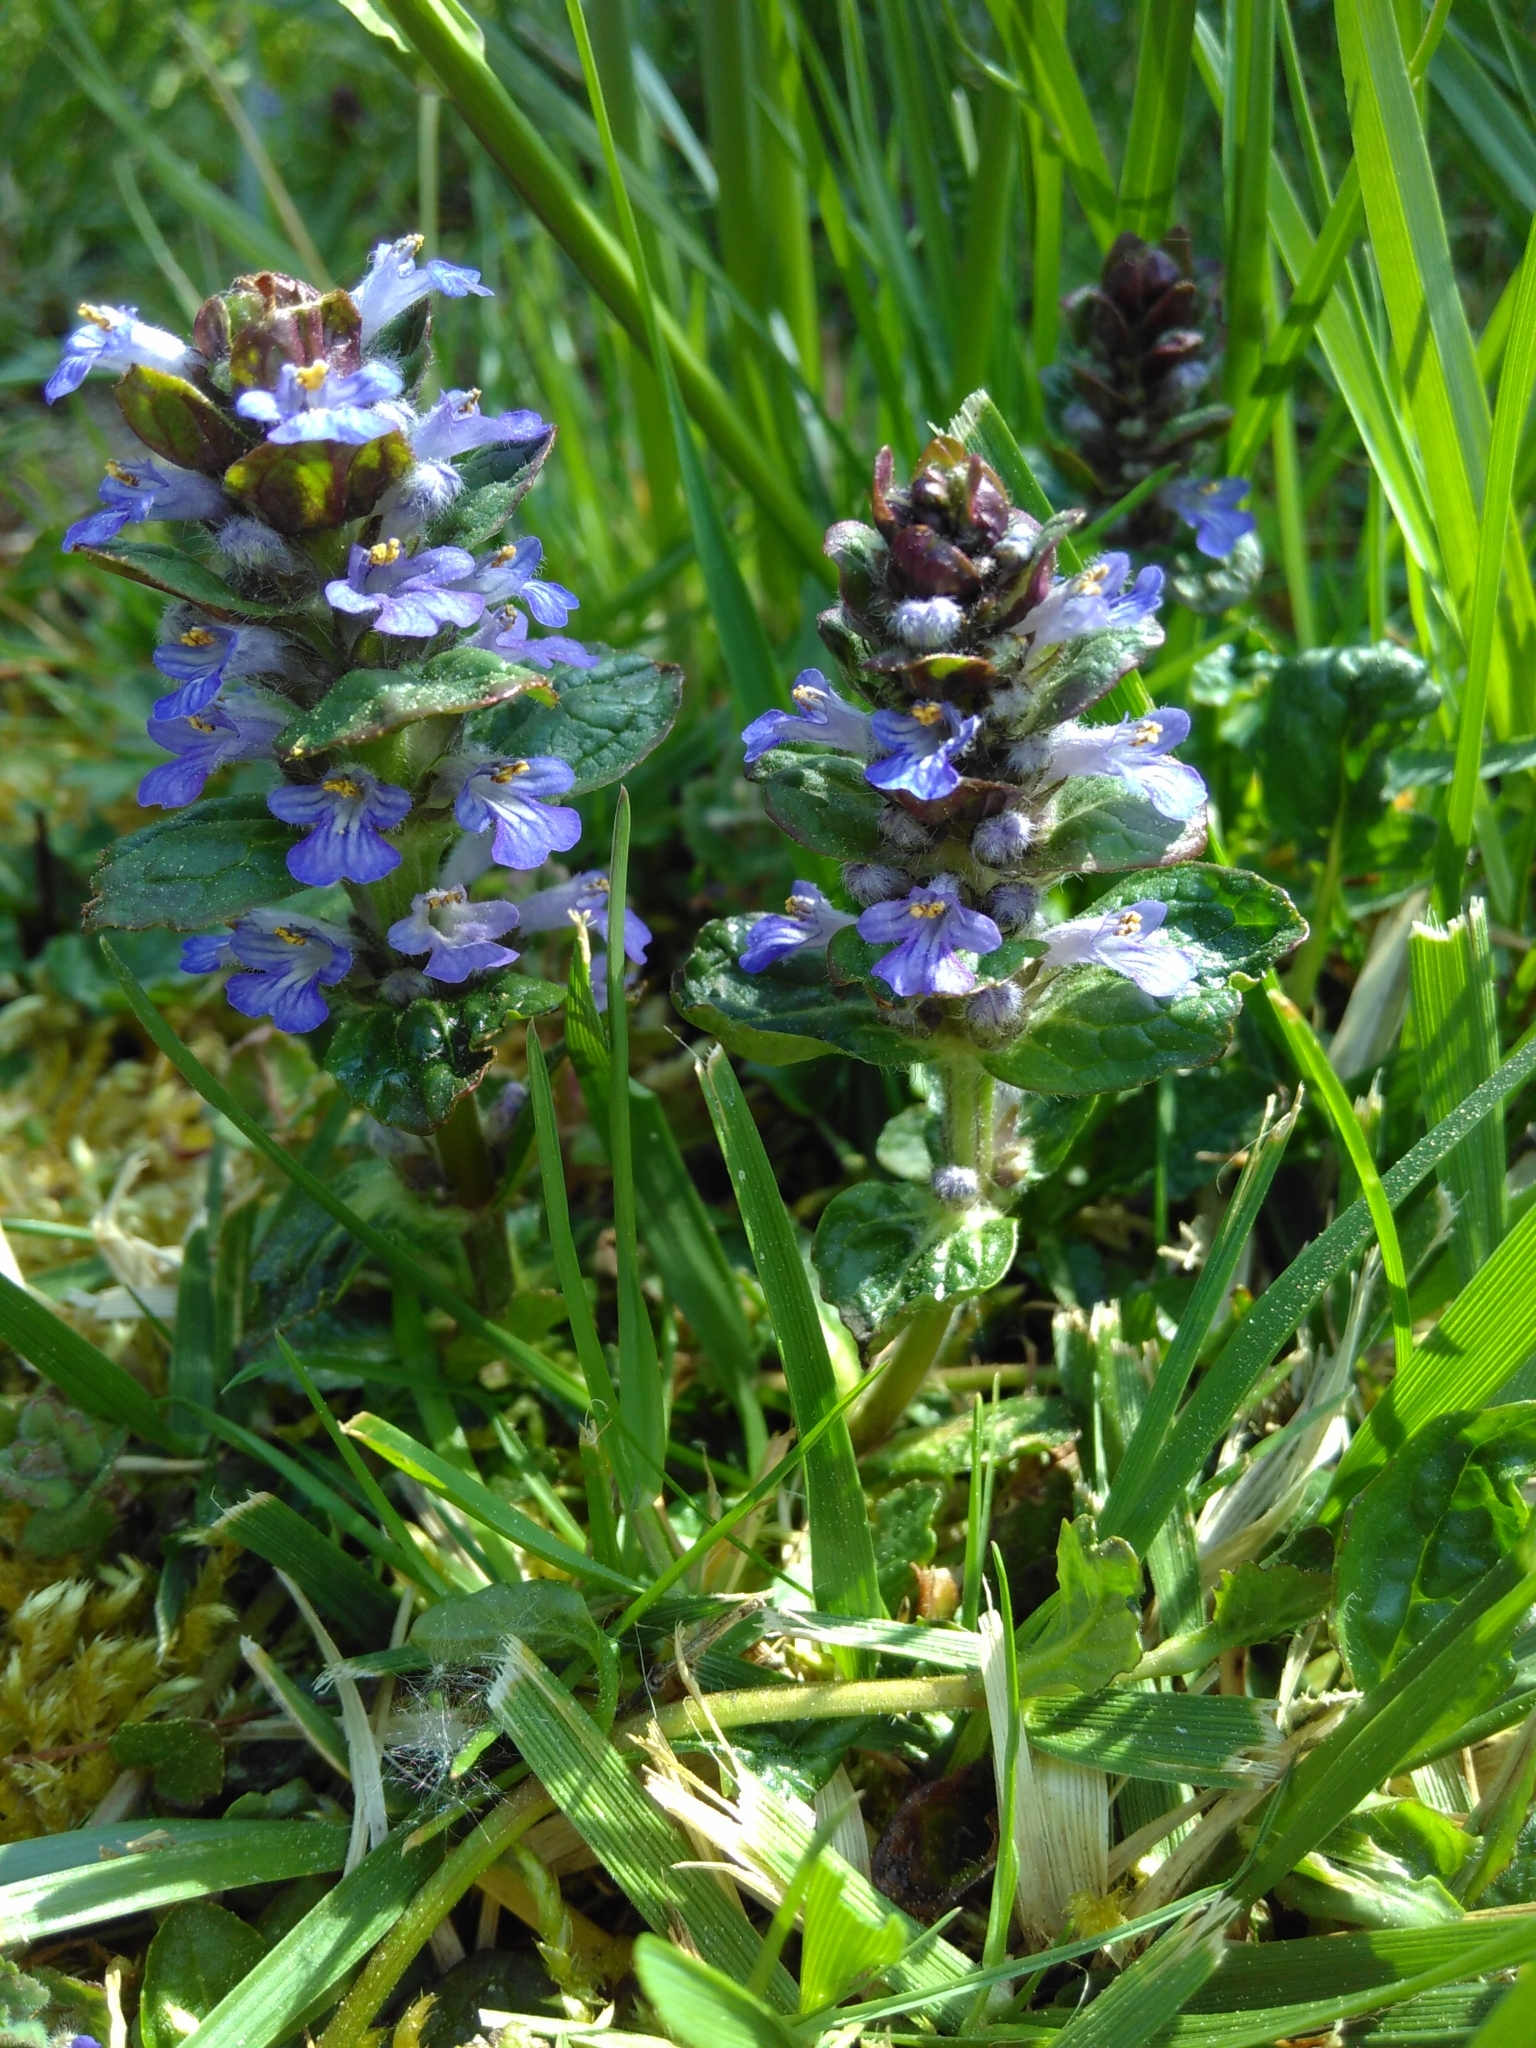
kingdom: Plantae
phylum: Tracheophyta
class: Magnoliopsida
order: Lamiales
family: Lamiaceae
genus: Ajuga
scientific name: Ajuga reptans
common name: Bugle
